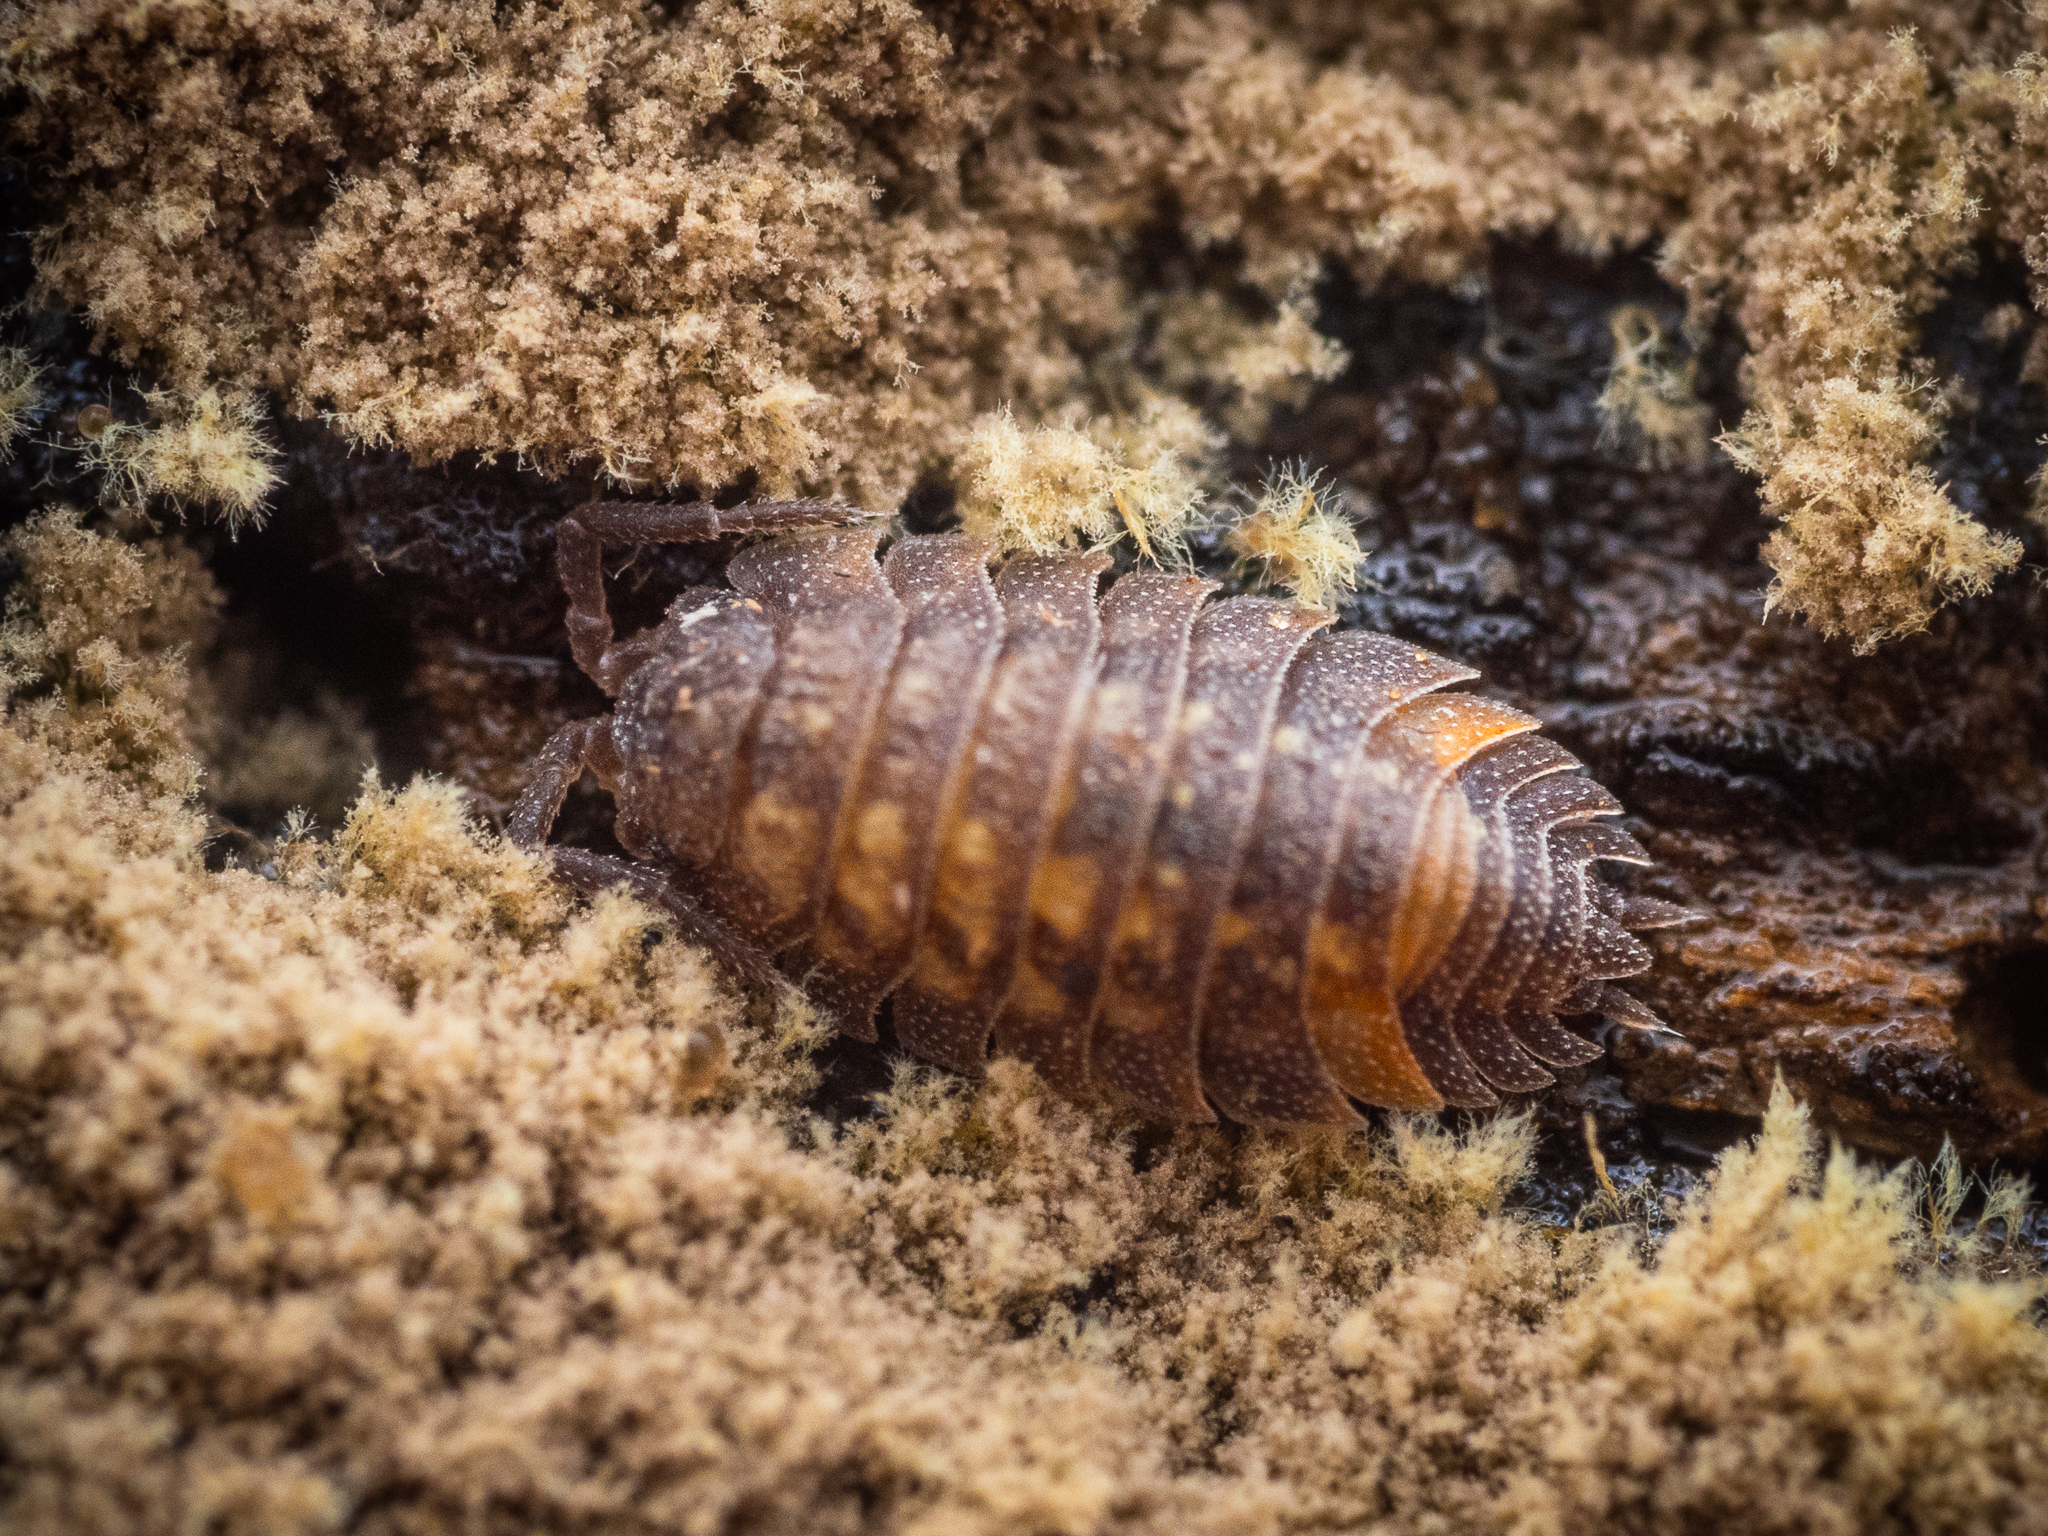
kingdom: Animalia
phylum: Arthropoda
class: Malacostraca
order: Isopoda
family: Oniscidae
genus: Oniscus
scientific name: Oniscus asellus
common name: Common shiny woodlouse
